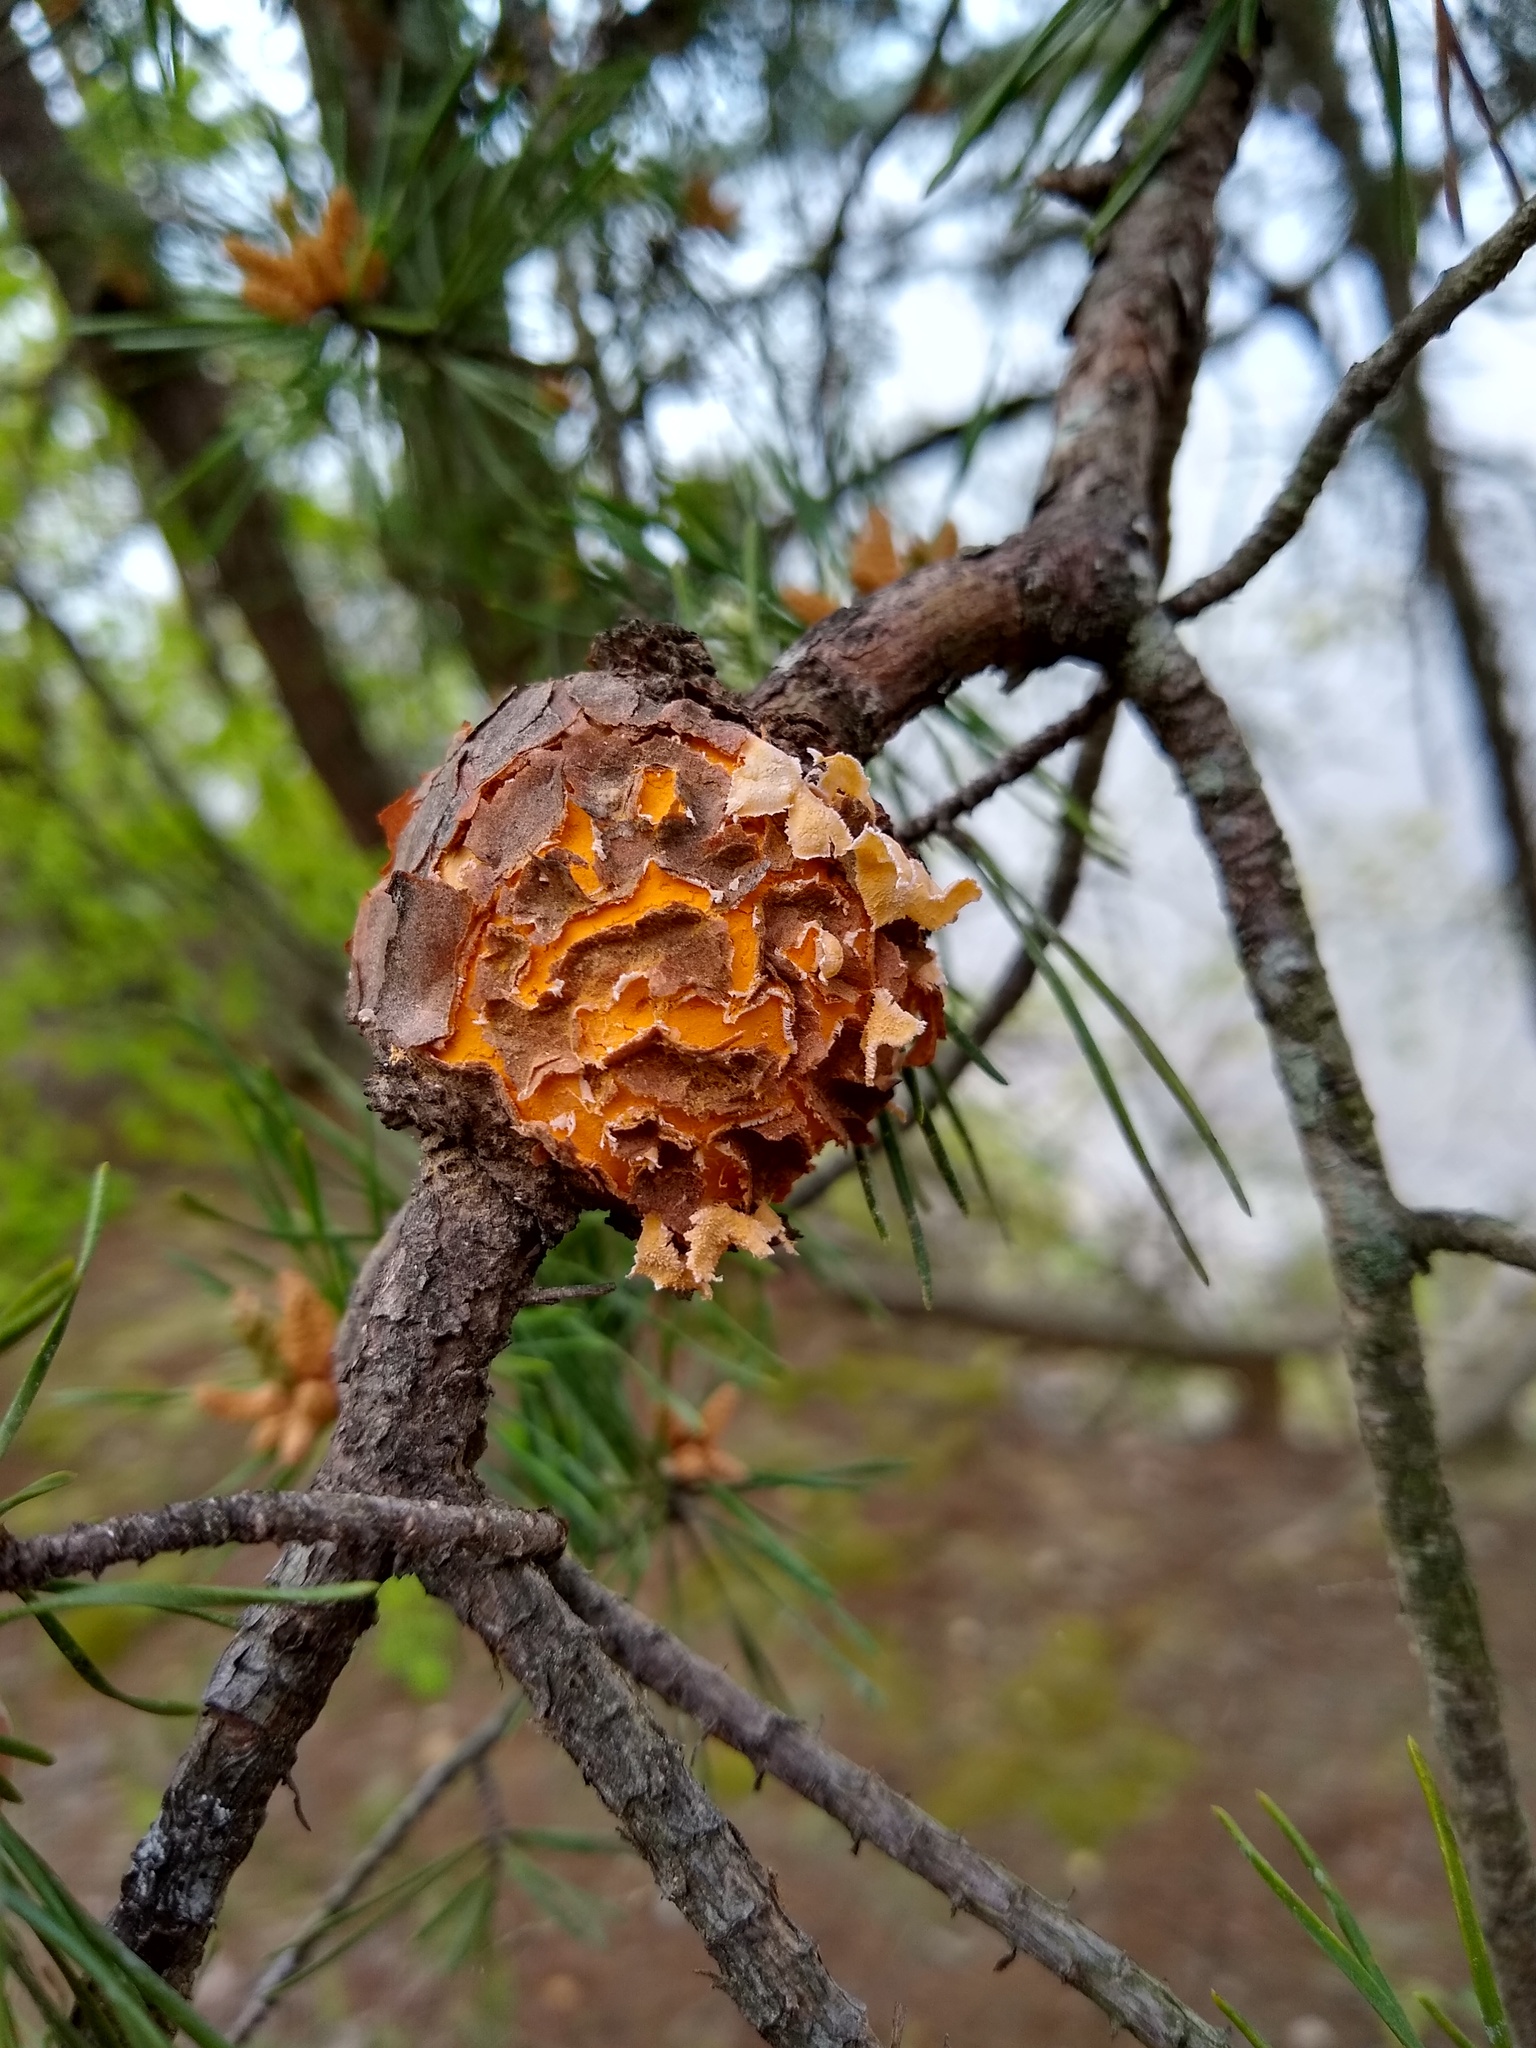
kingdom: Fungi
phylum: Basidiomycota
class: Pucciniomycetes
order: Pucciniales
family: Cronartiaceae
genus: Cronartium
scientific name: Cronartium quercuum
